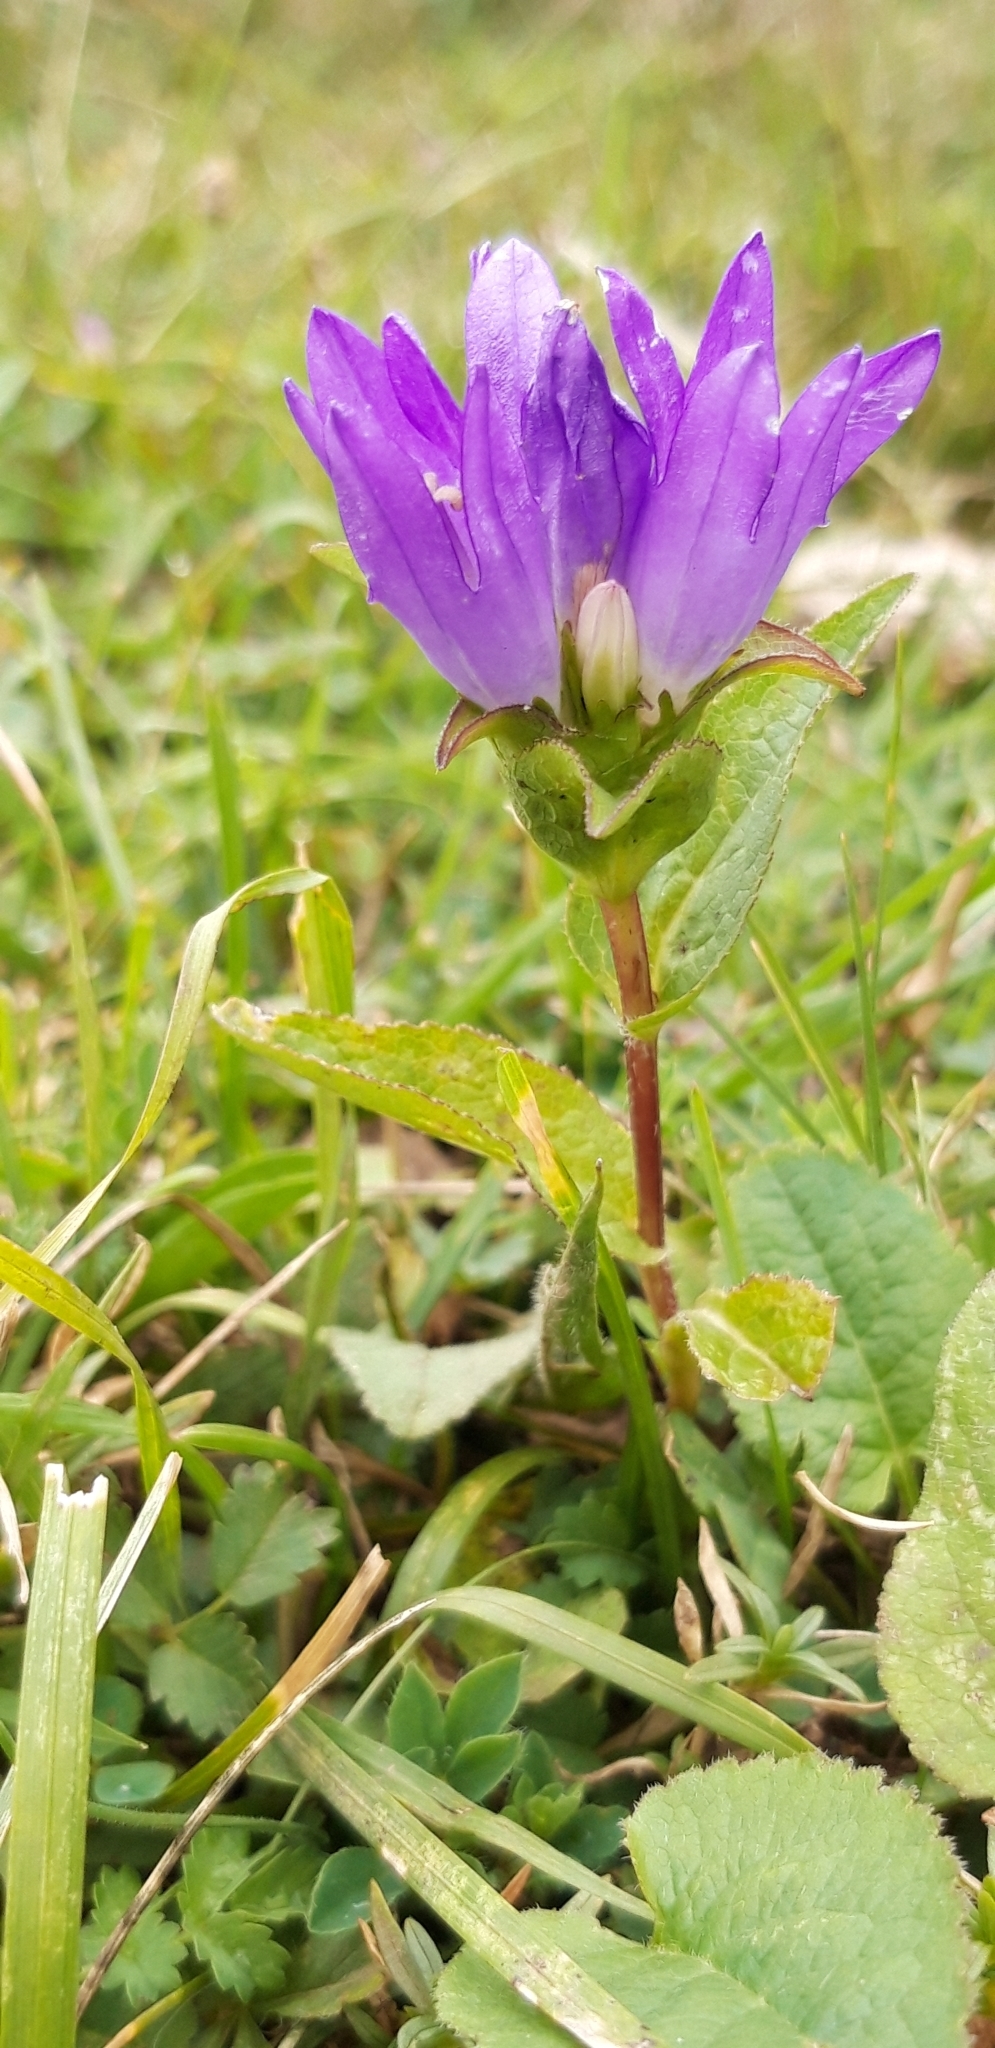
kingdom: Plantae
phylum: Tracheophyta
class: Magnoliopsida
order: Asterales
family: Campanulaceae
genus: Campanula
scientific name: Campanula glomerata
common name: Clustered bellflower
